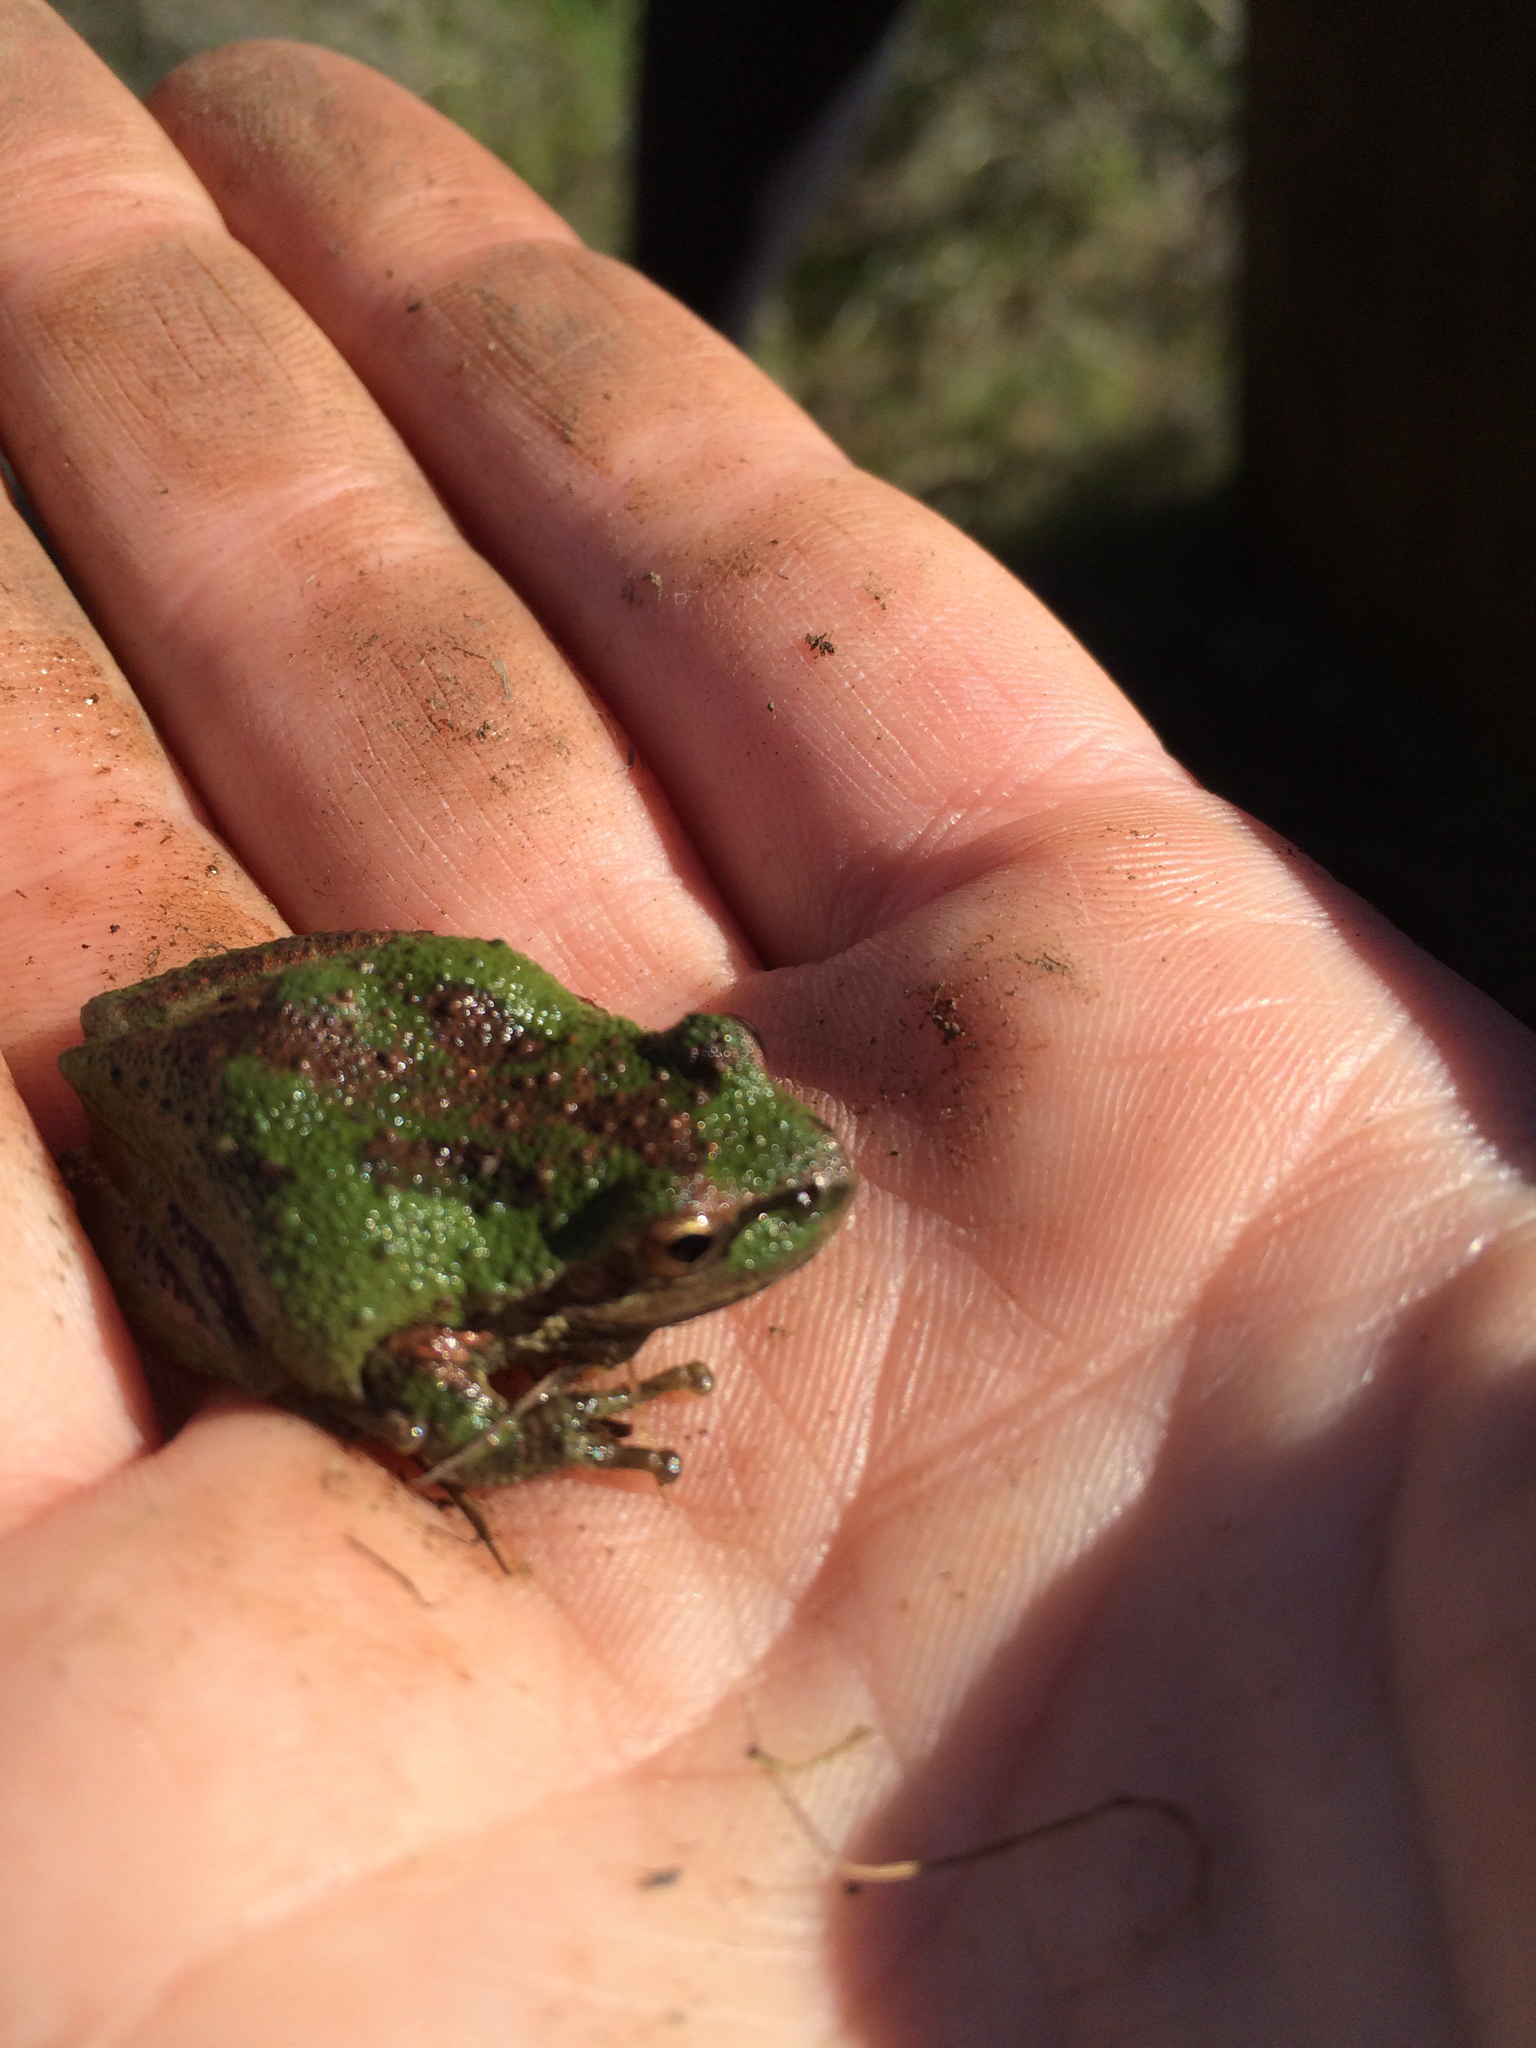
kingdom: Animalia
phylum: Chordata
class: Amphibia
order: Anura
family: Hylidae
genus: Pseudacris
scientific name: Pseudacris regilla
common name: Pacific chorus frog
